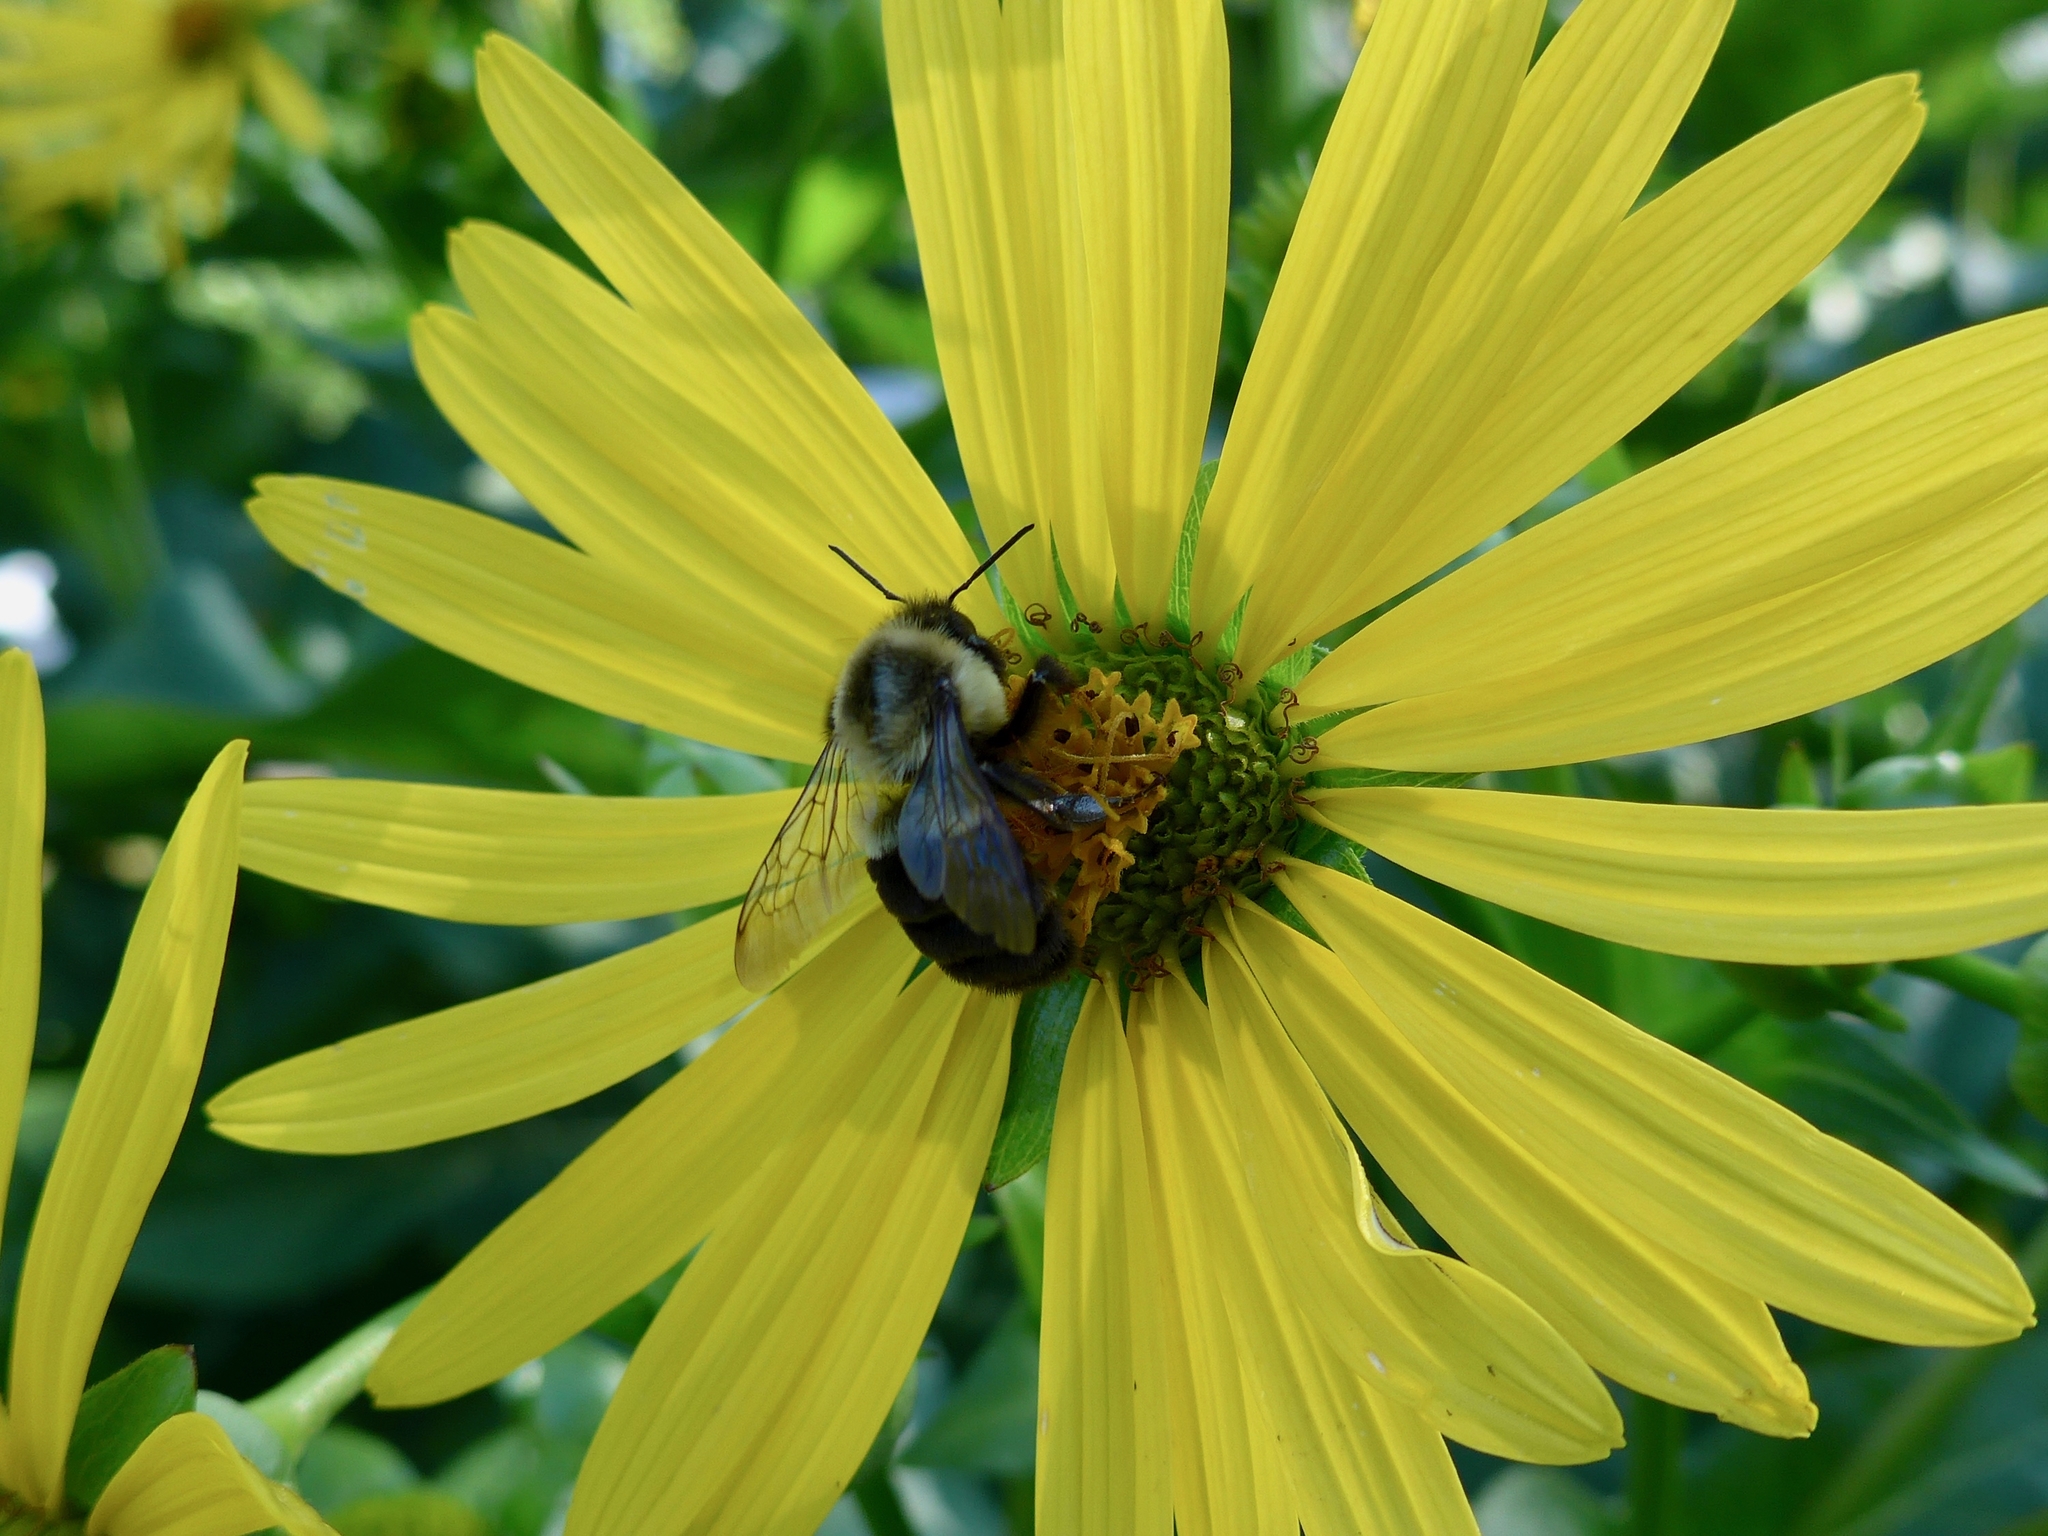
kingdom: Animalia
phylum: Arthropoda
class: Insecta
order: Hymenoptera
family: Apidae
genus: Bombus
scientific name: Bombus impatiens
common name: Common eastern bumble bee
